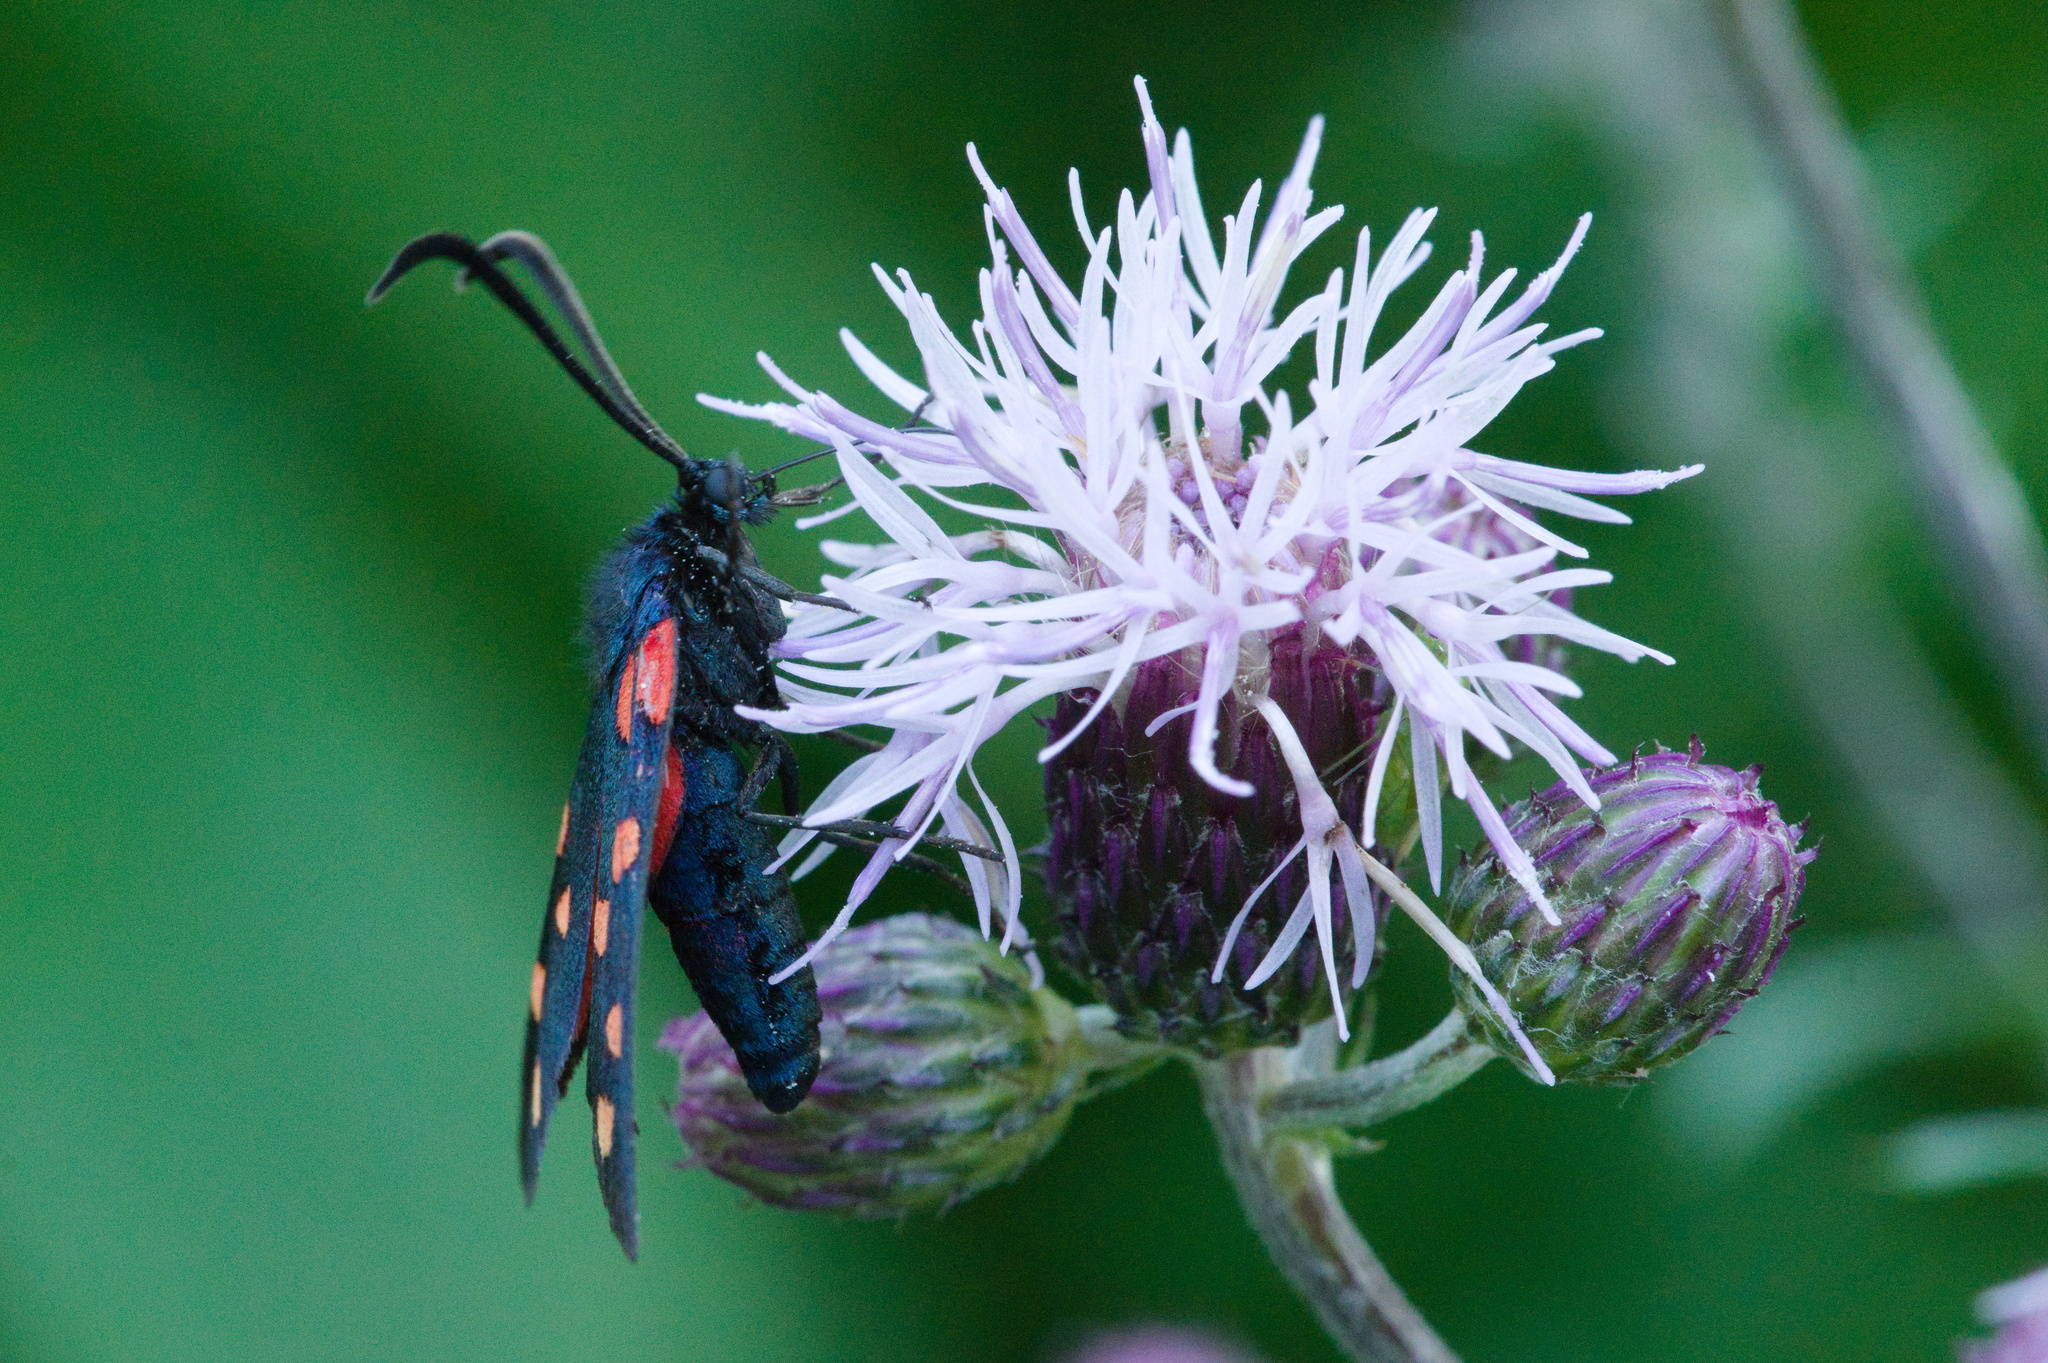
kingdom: Animalia
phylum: Arthropoda
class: Insecta
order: Lepidoptera
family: Zygaenidae
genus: Zygaena
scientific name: Zygaena transalpina
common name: Southern six spot burnet
